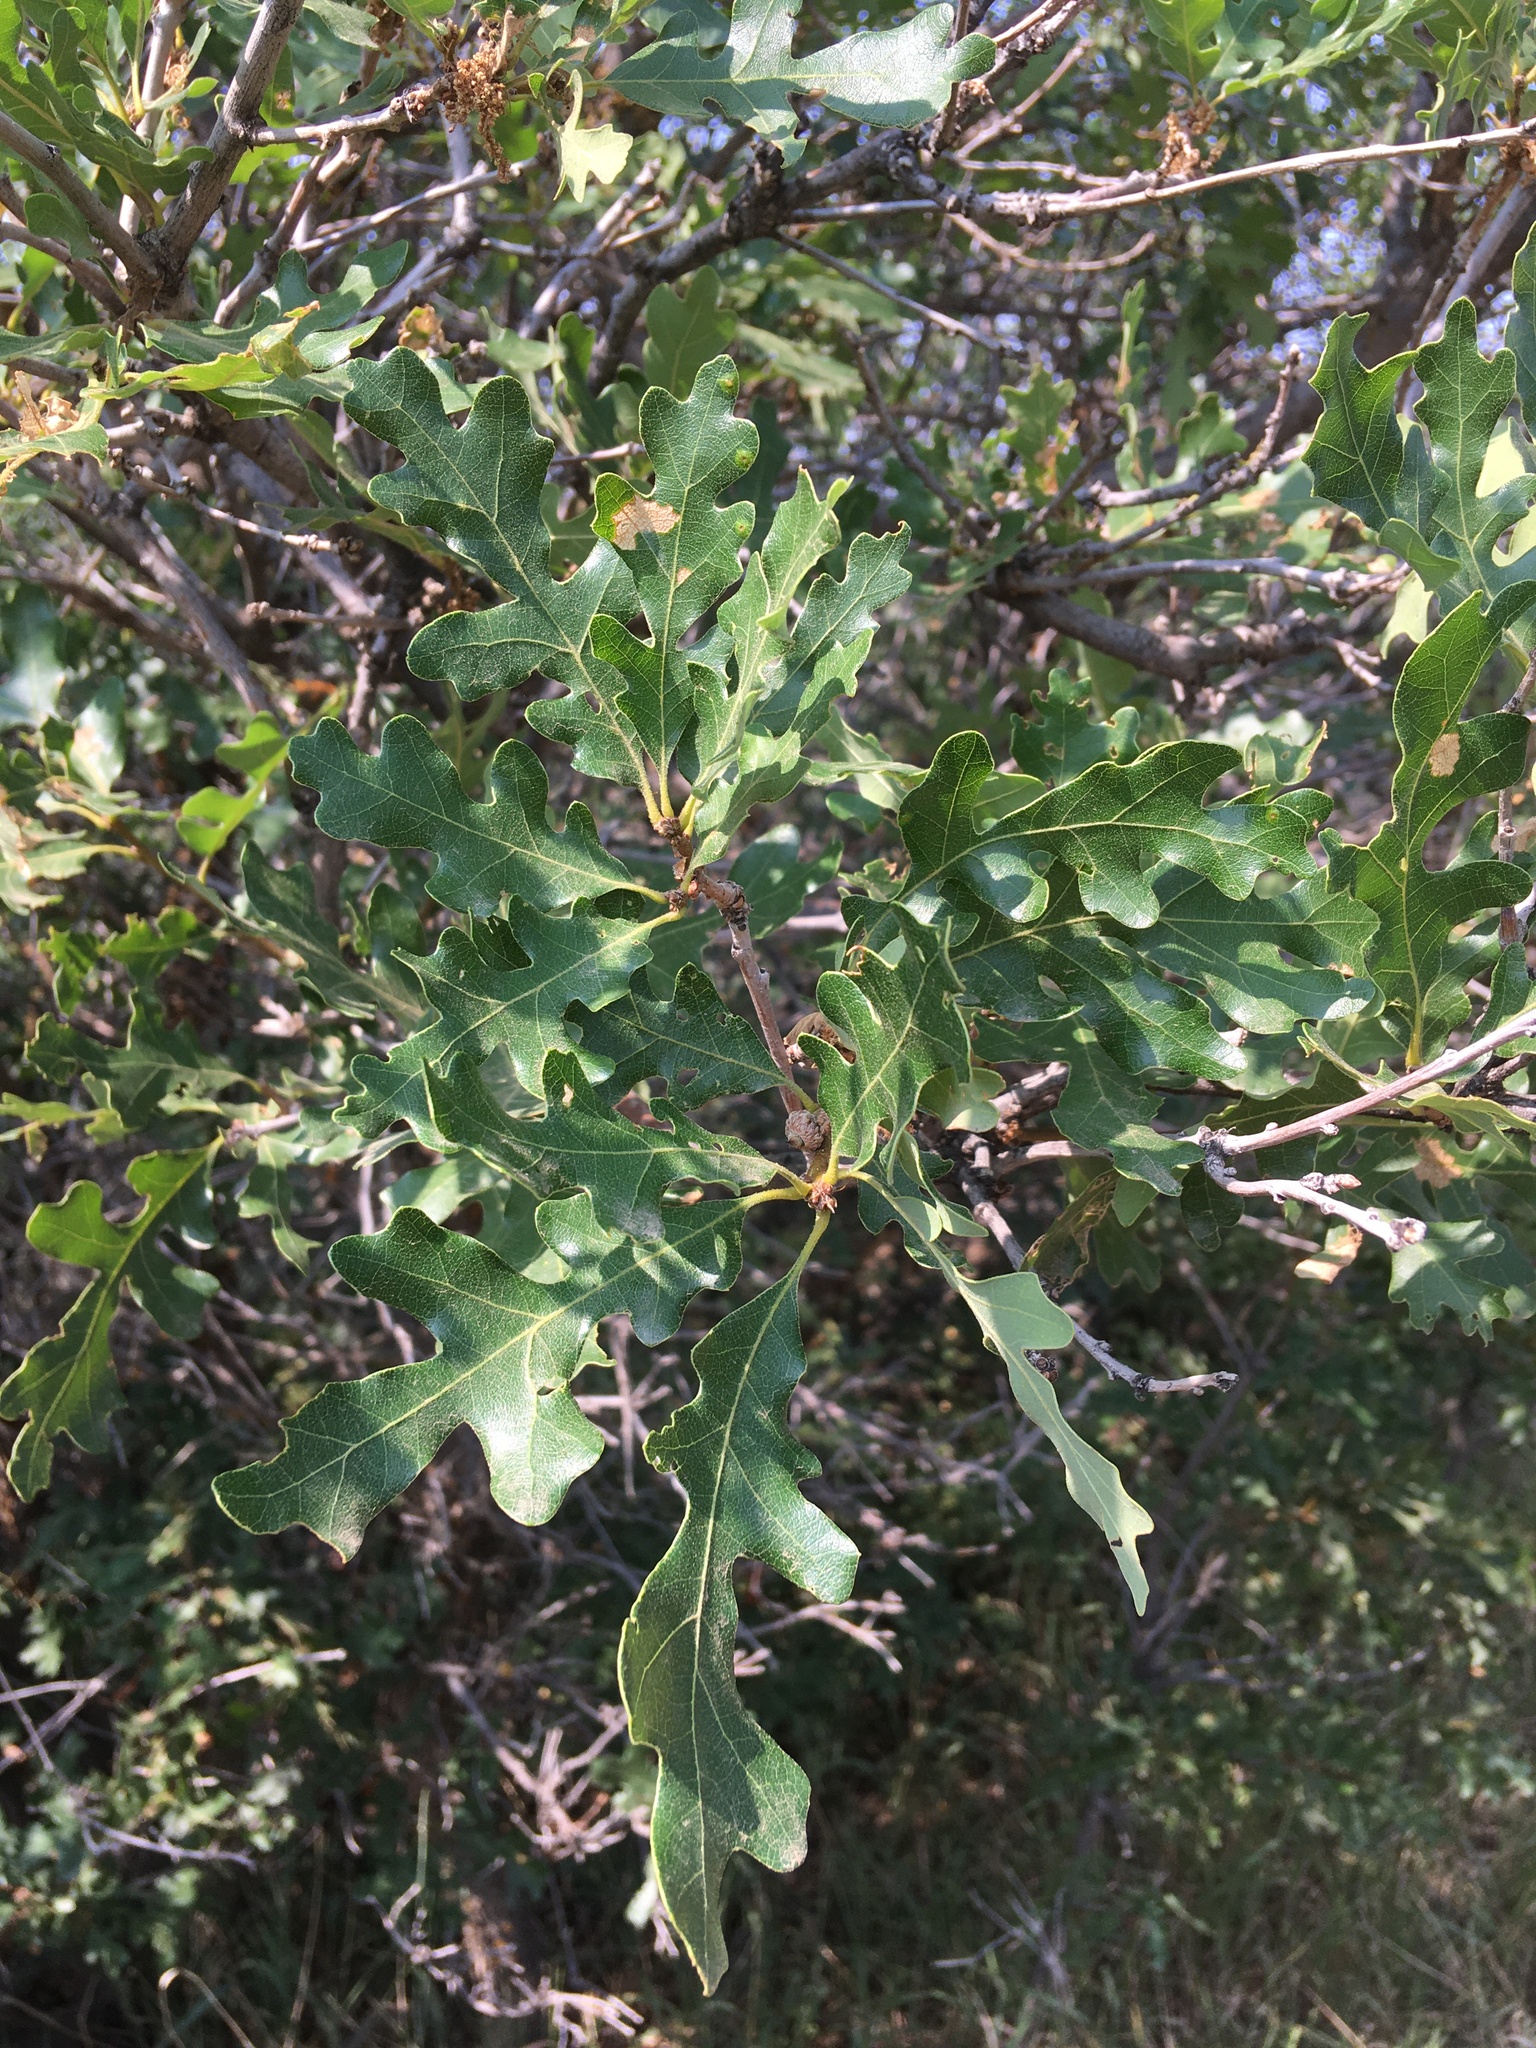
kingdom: Plantae
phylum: Tracheophyta
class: Magnoliopsida
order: Fagales
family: Fagaceae
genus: Quercus
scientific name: Quercus gambelii
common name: Gambel oak
